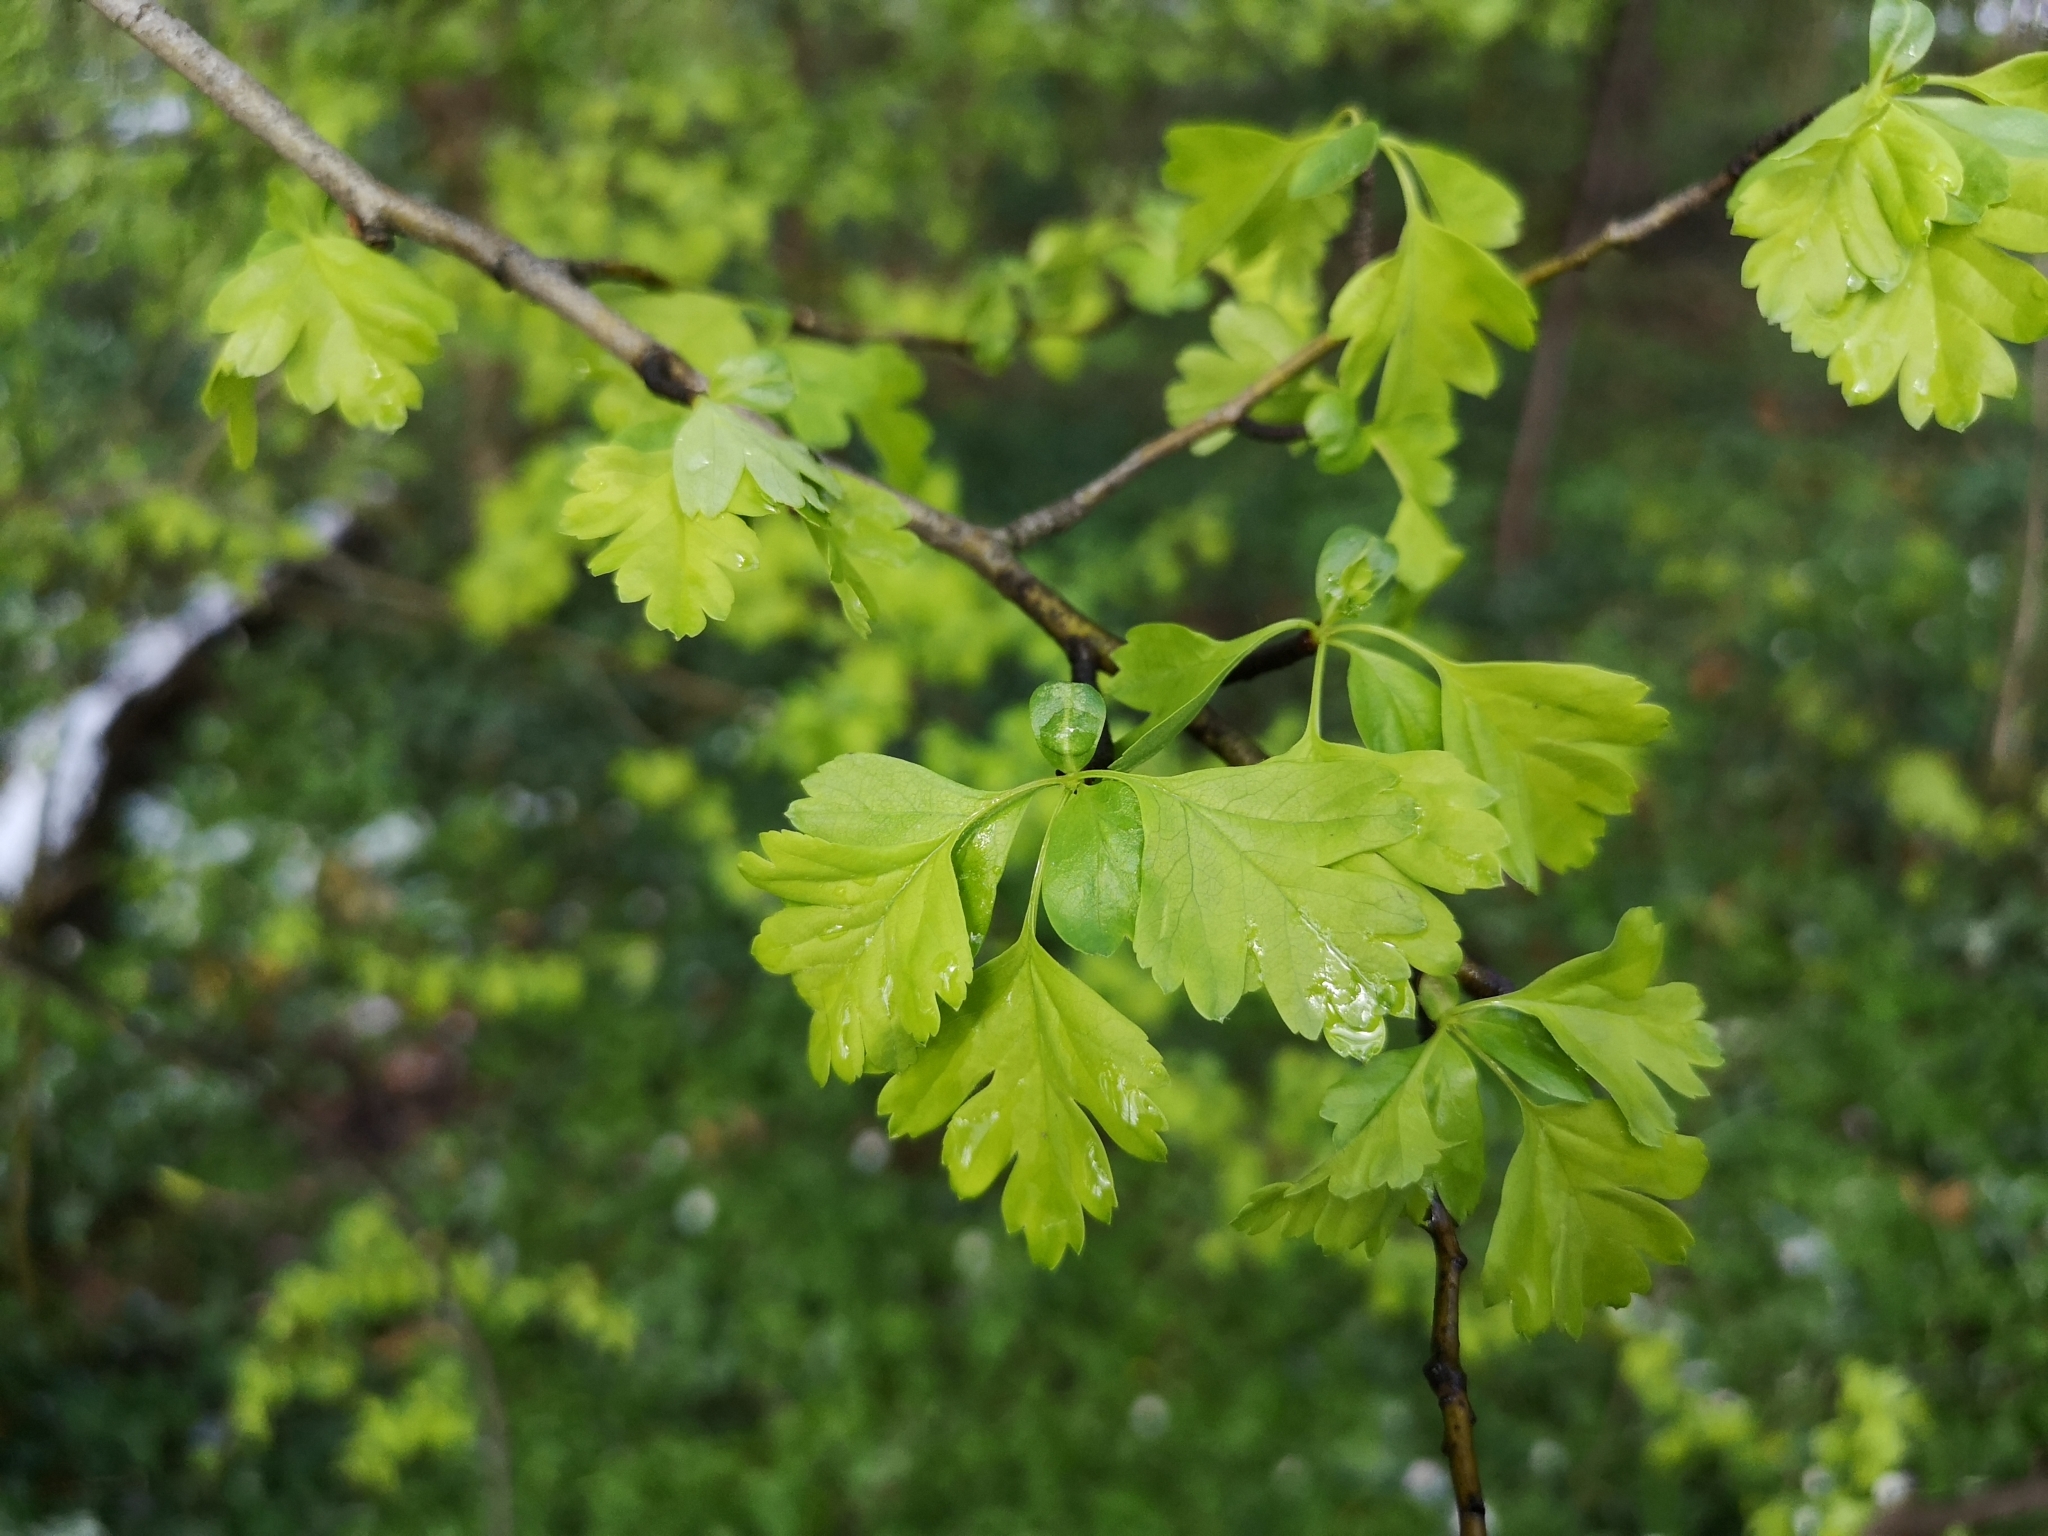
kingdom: Plantae
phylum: Tracheophyta
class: Magnoliopsida
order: Rosales
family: Rosaceae
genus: Crataegus
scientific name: Crataegus monogyna
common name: Hawthorn
